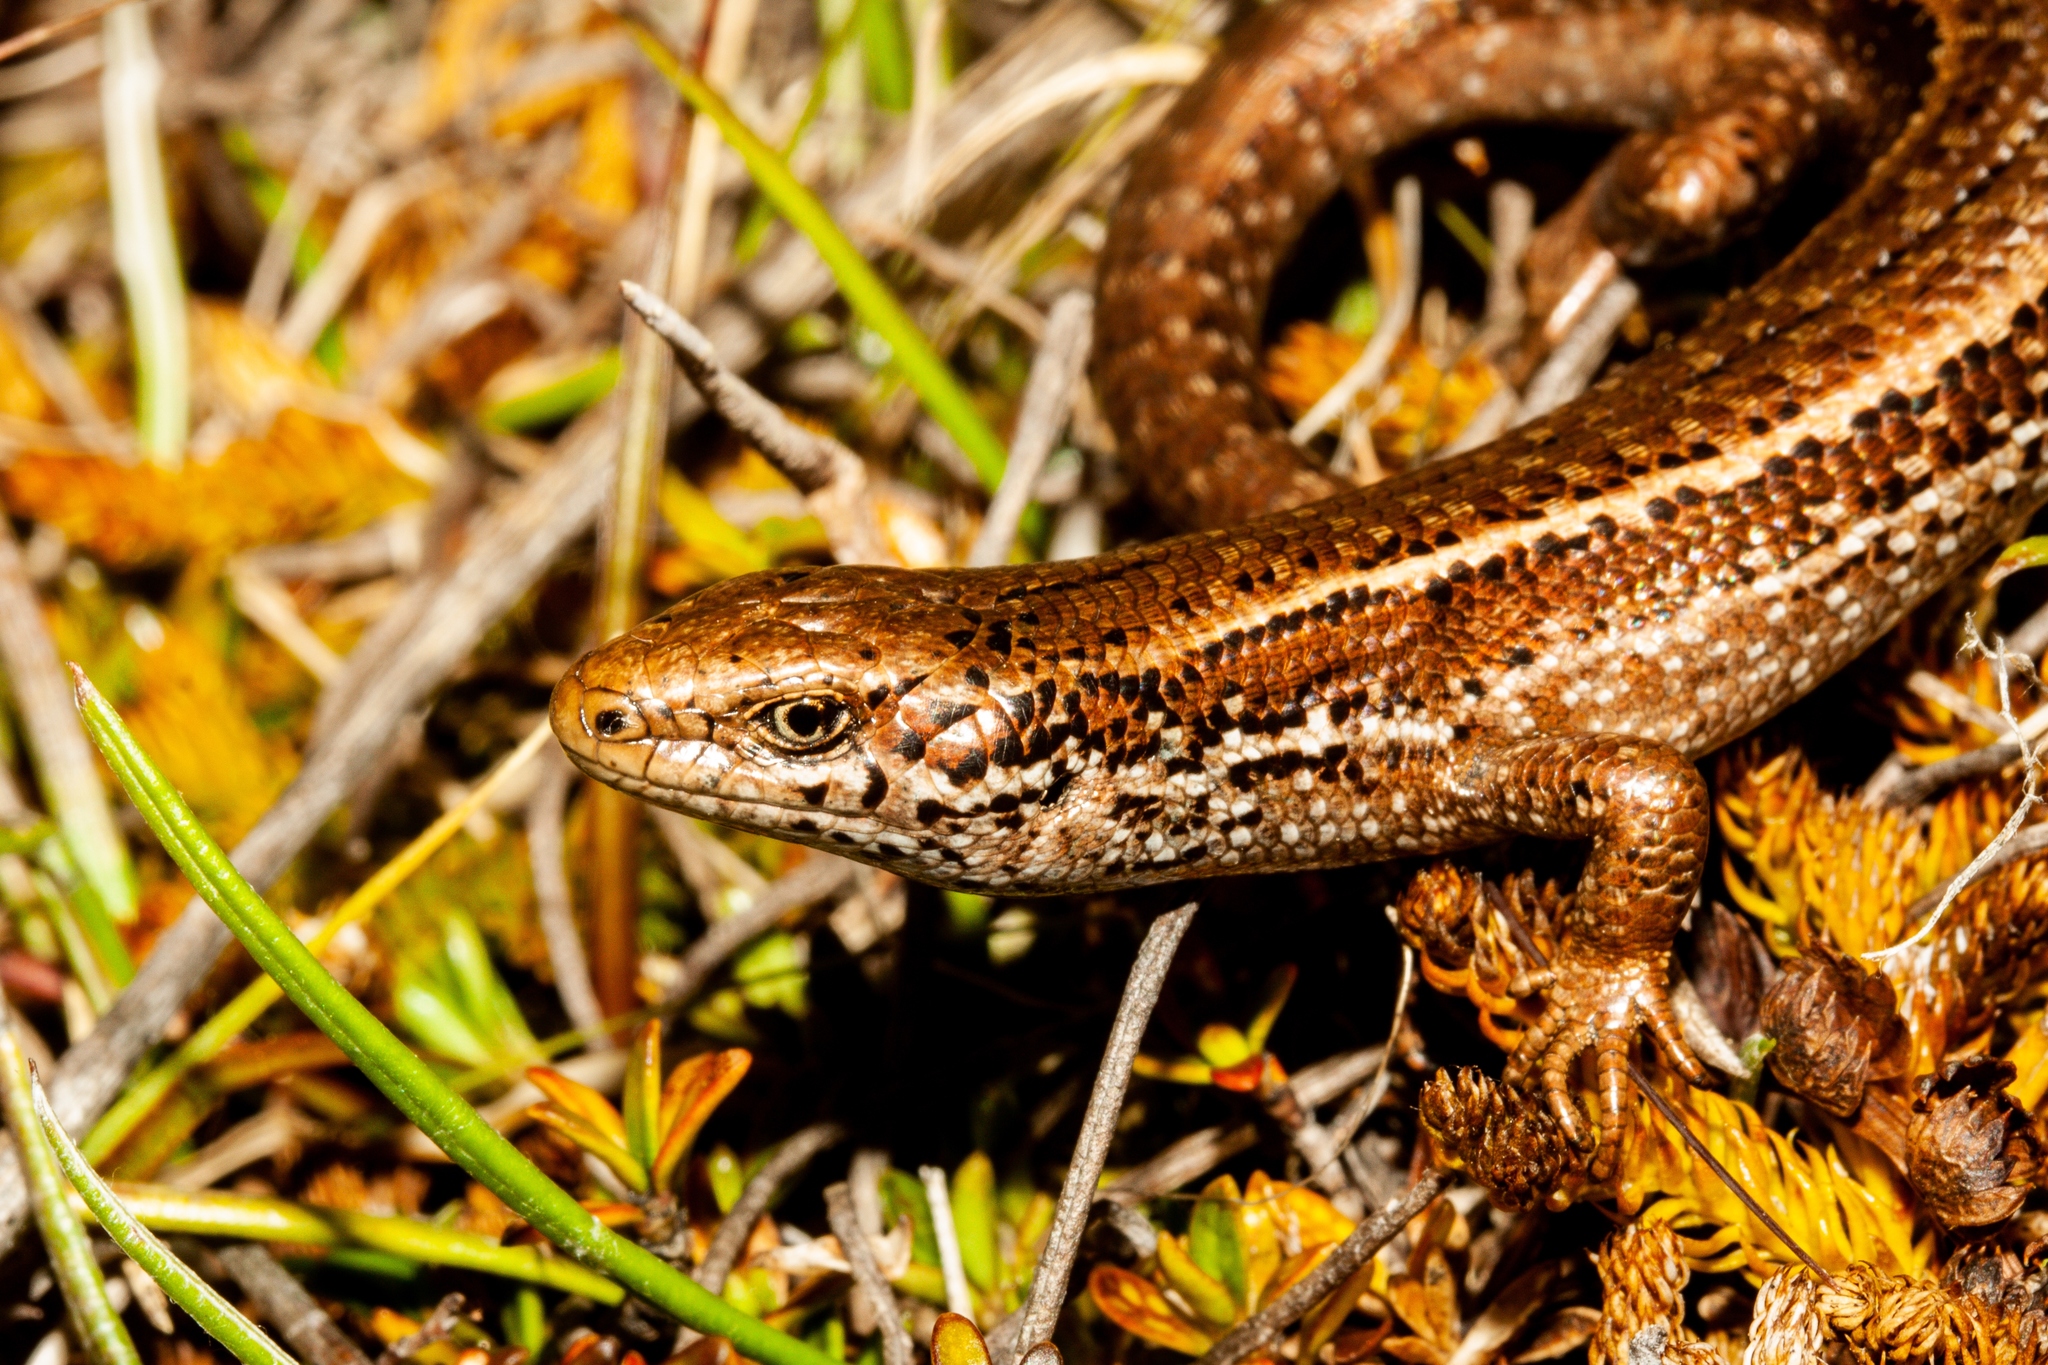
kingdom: Animalia
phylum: Chordata
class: Squamata
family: Scincidae
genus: Oligosoma
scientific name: Oligosoma burganae
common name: Burgan skink
